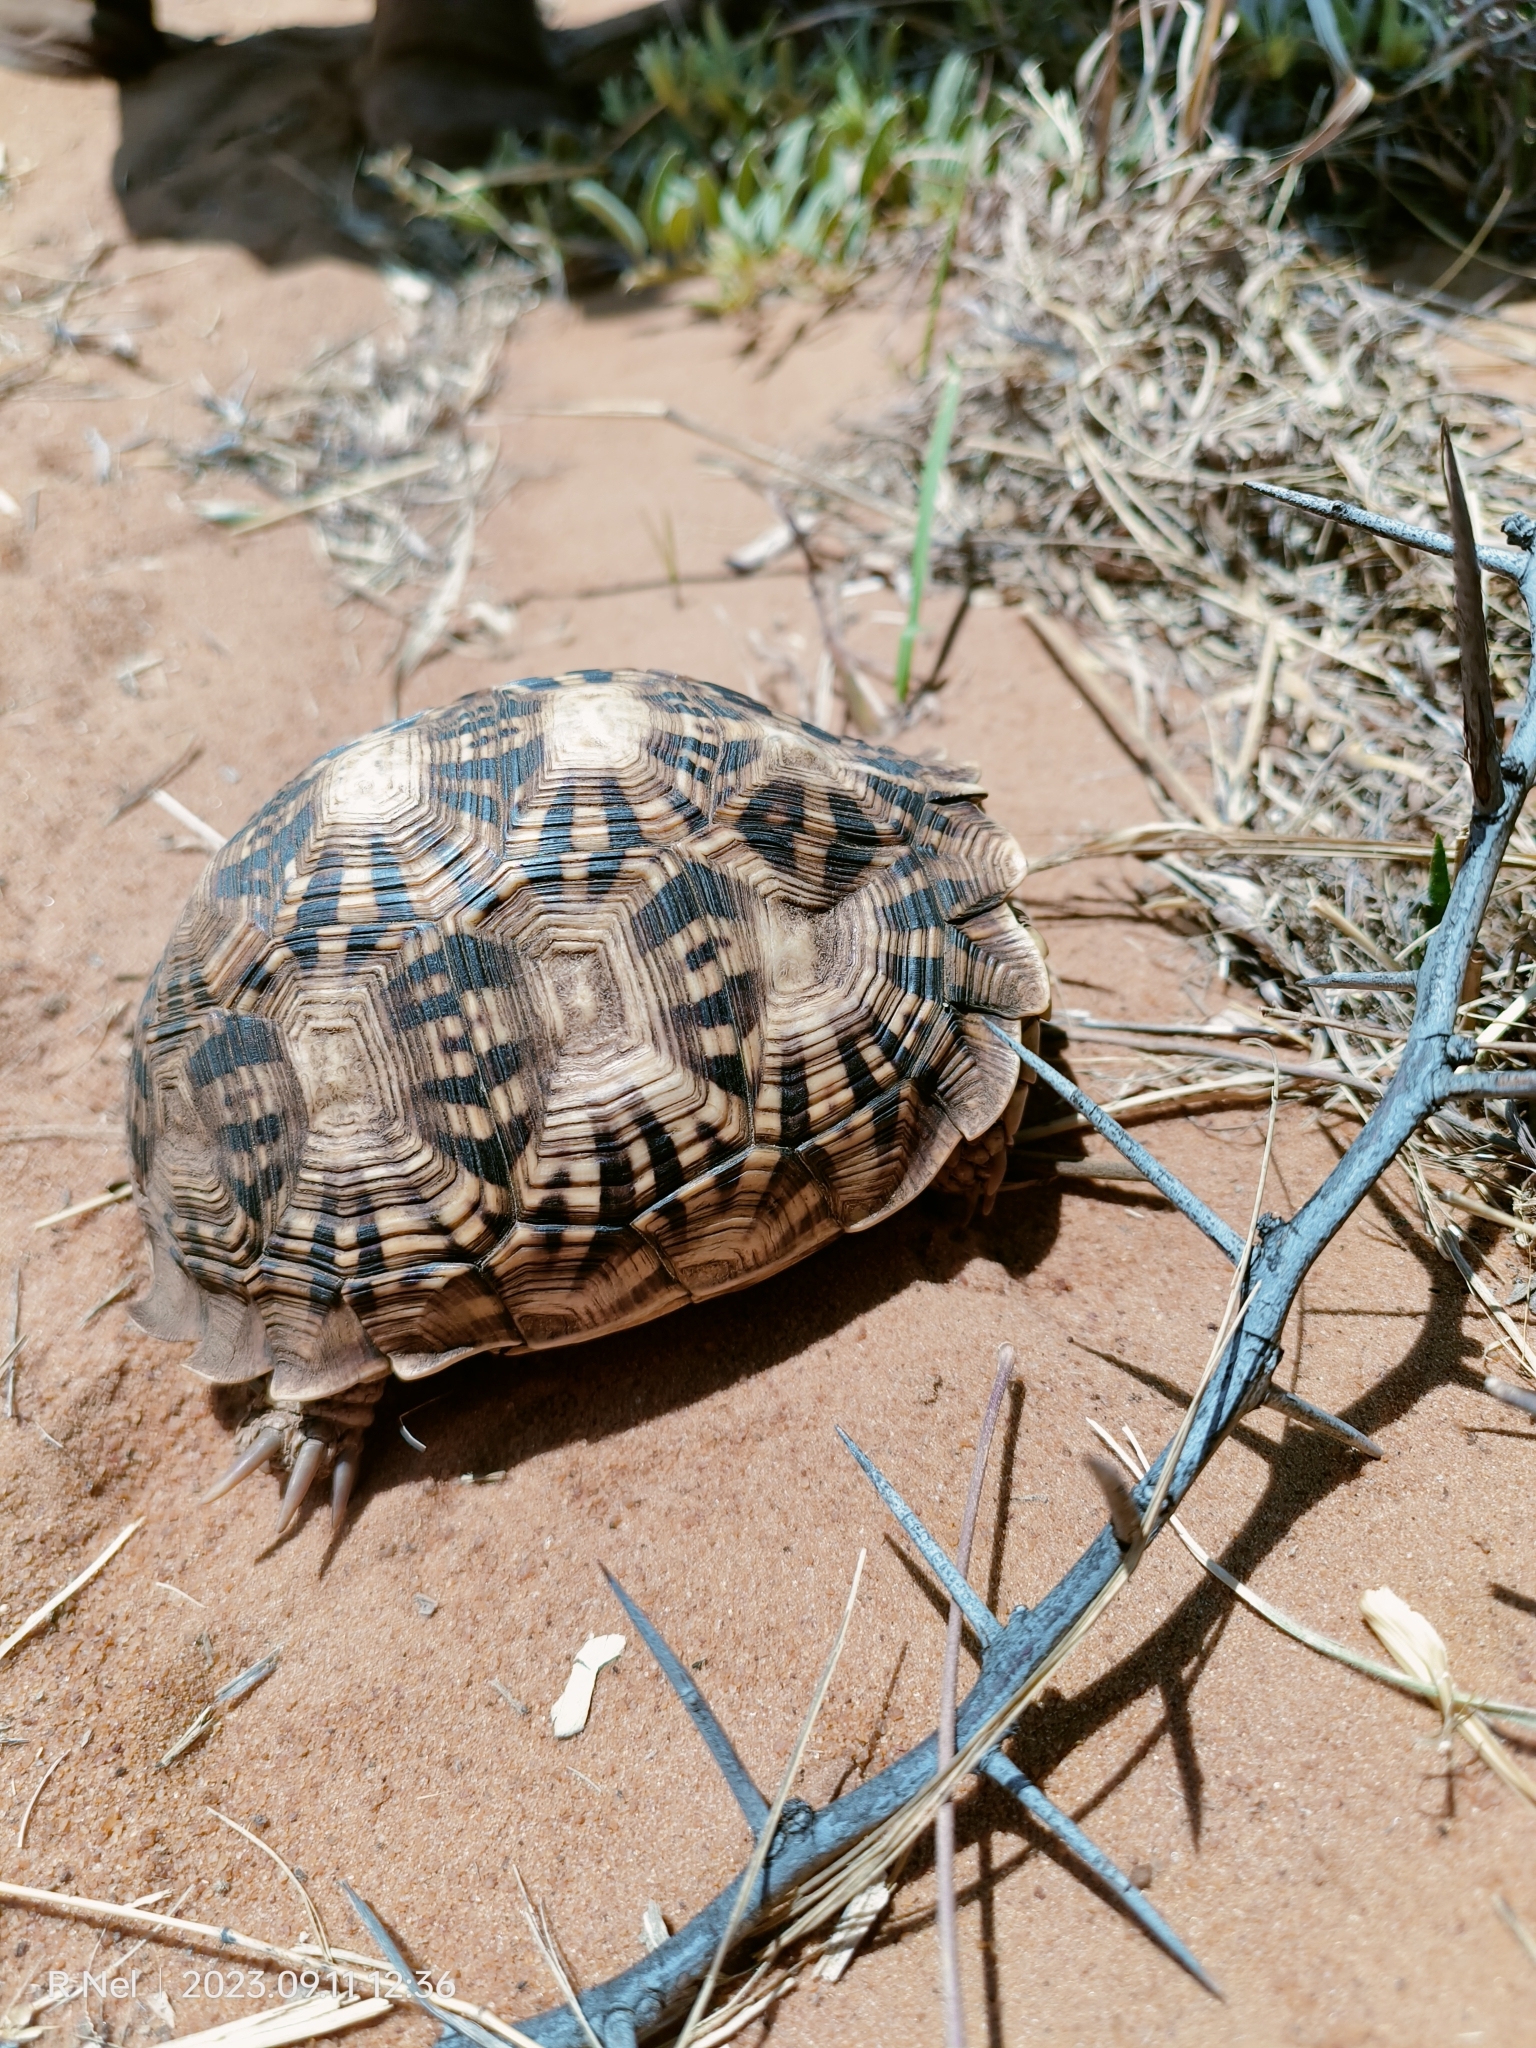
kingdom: Animalia
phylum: Chordata
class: Testudines
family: Testudinidae
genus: Psammobates
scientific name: Psammobates oculifer
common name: Serrated tortoise
